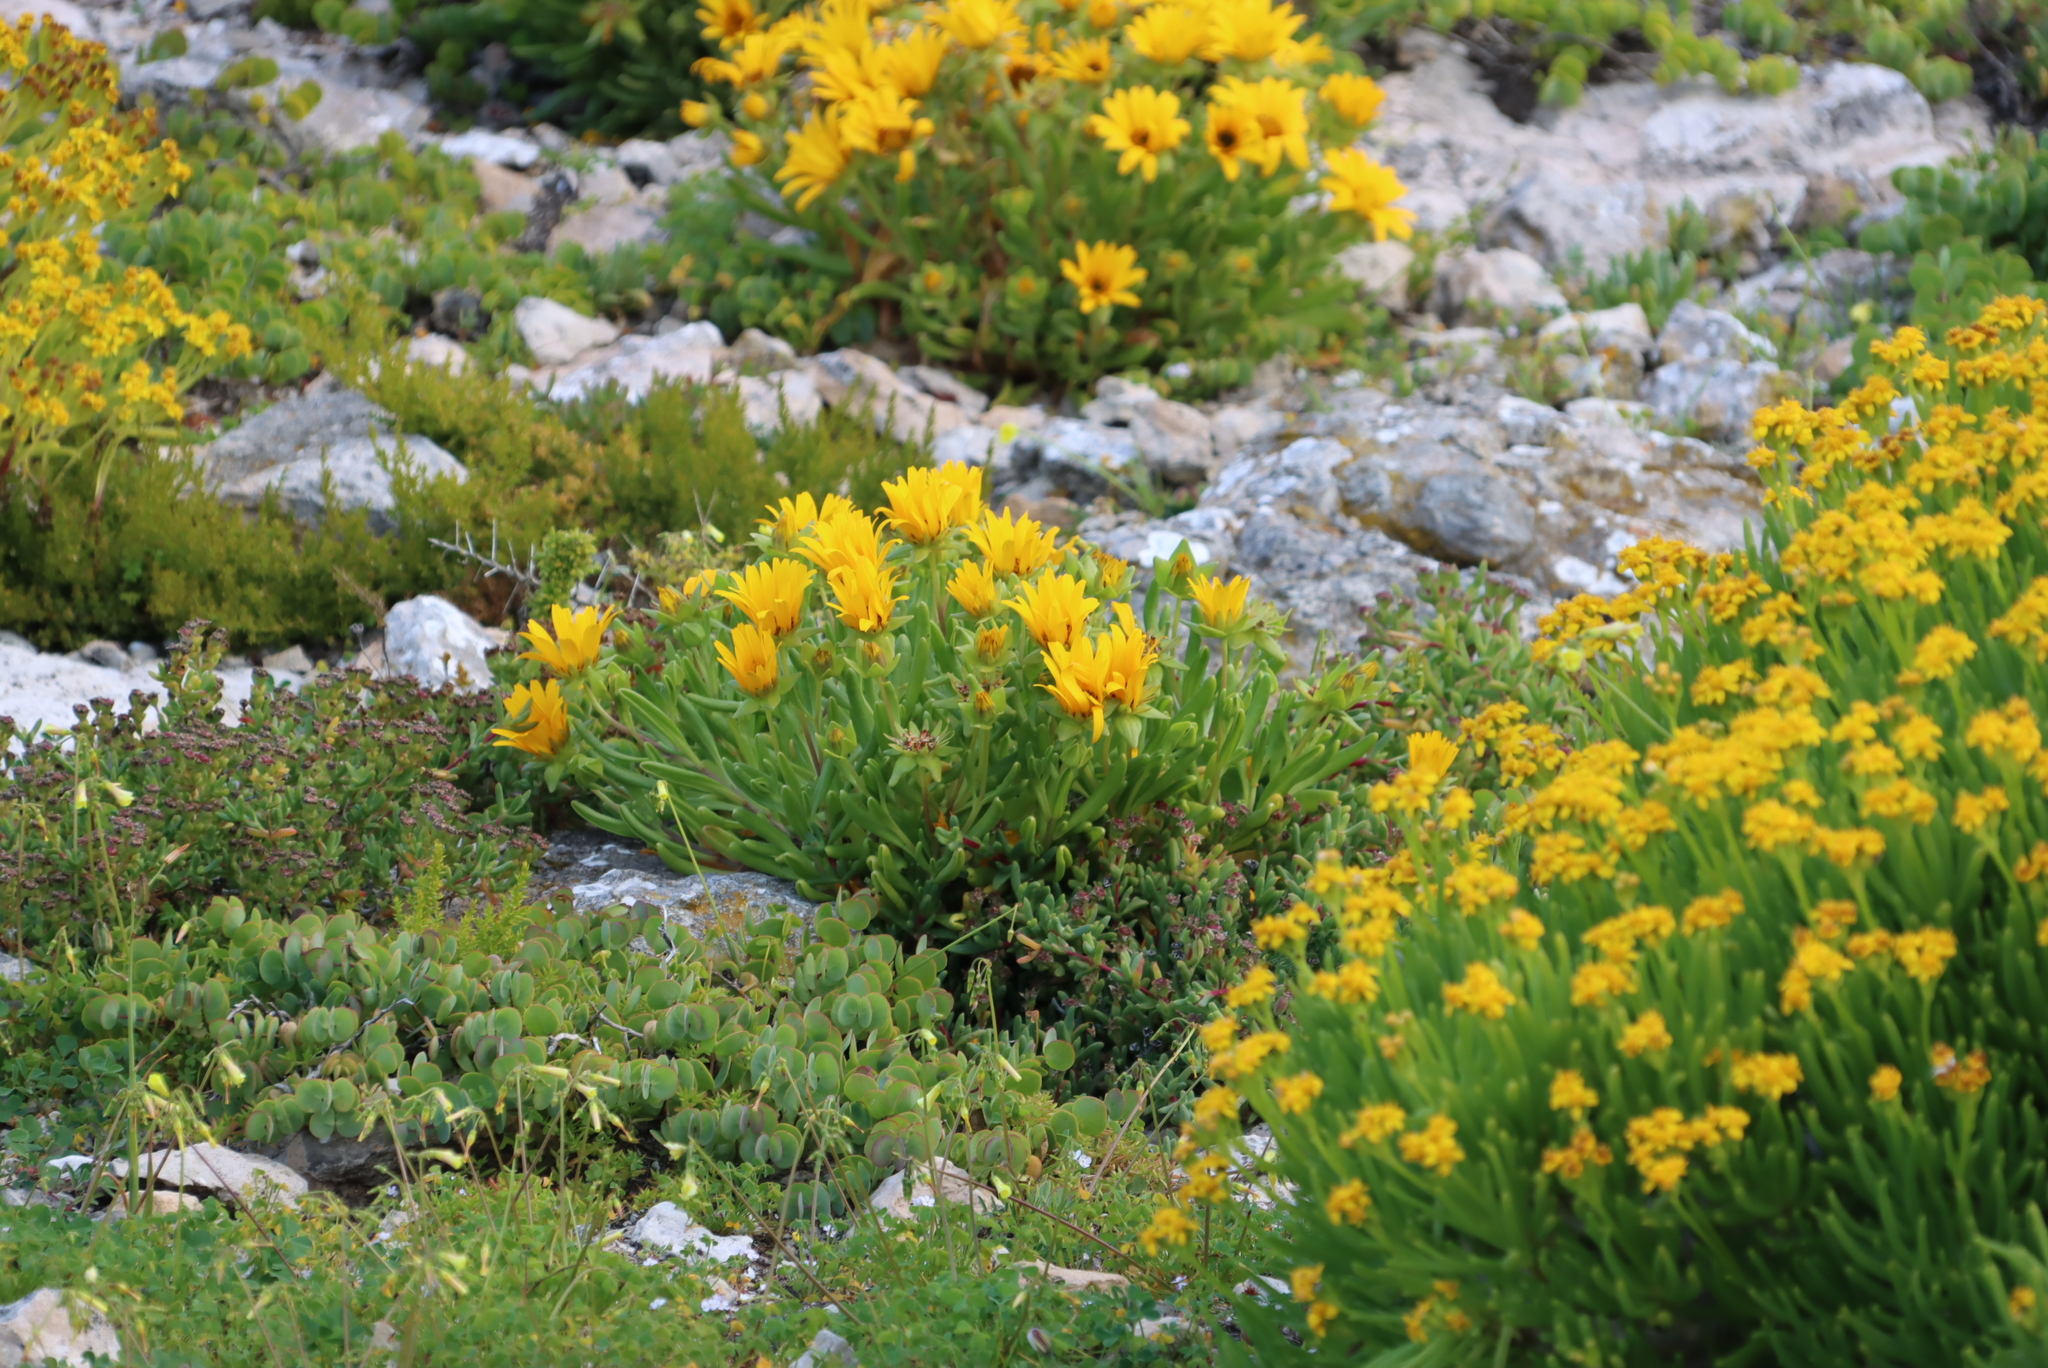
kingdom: Plantae
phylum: Tracheophyta
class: Magnoliopsida
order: Asterales
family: Asteraceae
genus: Didelta
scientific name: Didelta carnosa
